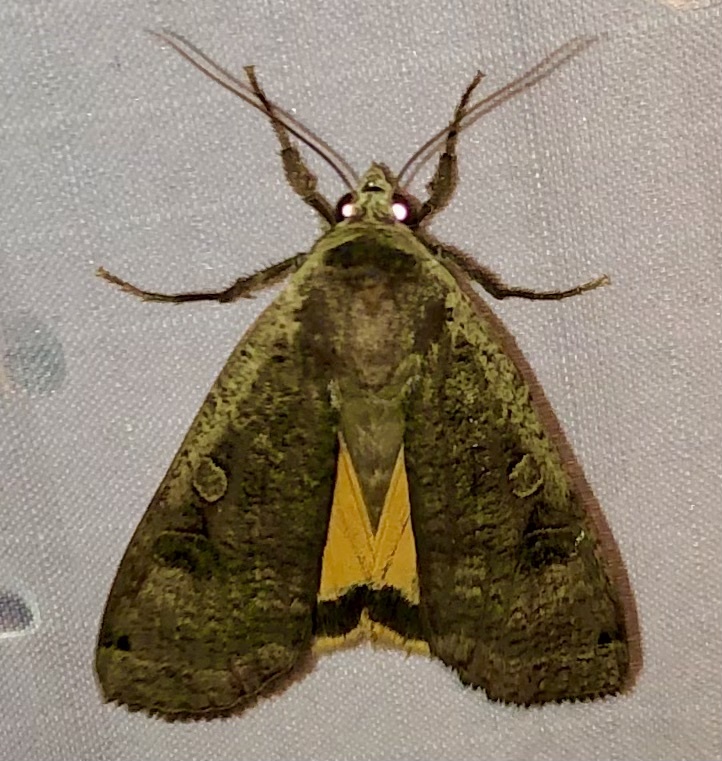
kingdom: Animalia
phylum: Arthropoda
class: Insecta
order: Lepidoptera
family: Noctuidae
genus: Noctua
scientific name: Noctua pronuba
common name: Large yellow underwing
